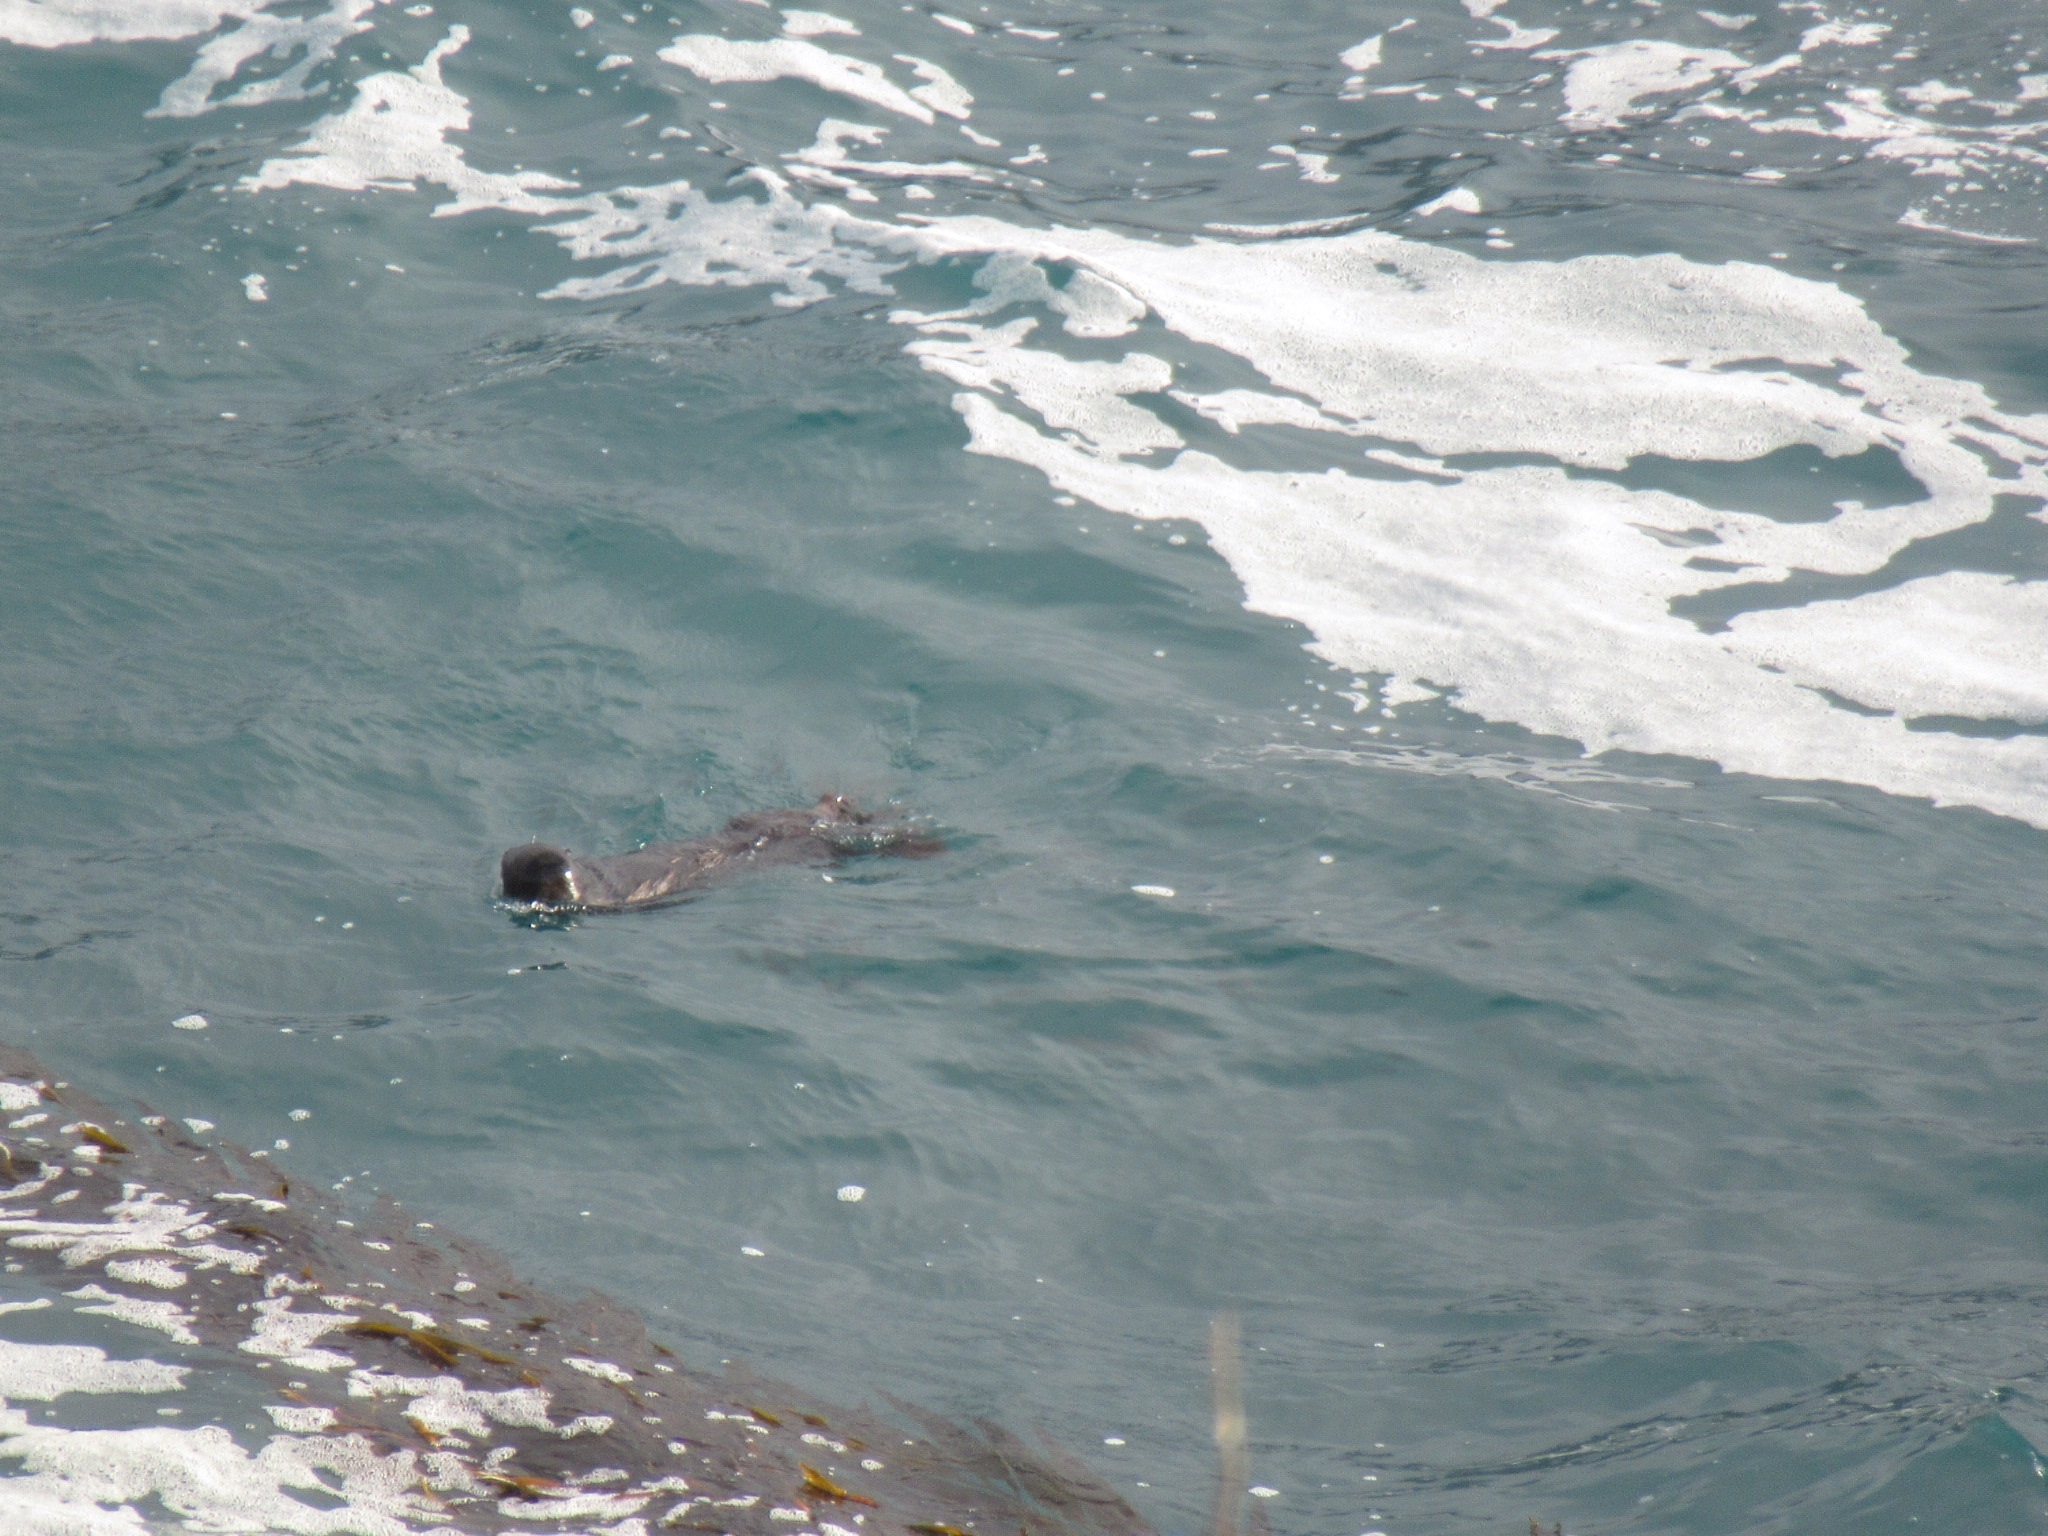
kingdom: Animalia
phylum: Chordata
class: Mammalia
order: Carnivora
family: Mustelidae
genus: Enhydra
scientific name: Enhydra lutris
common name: Sea otter
